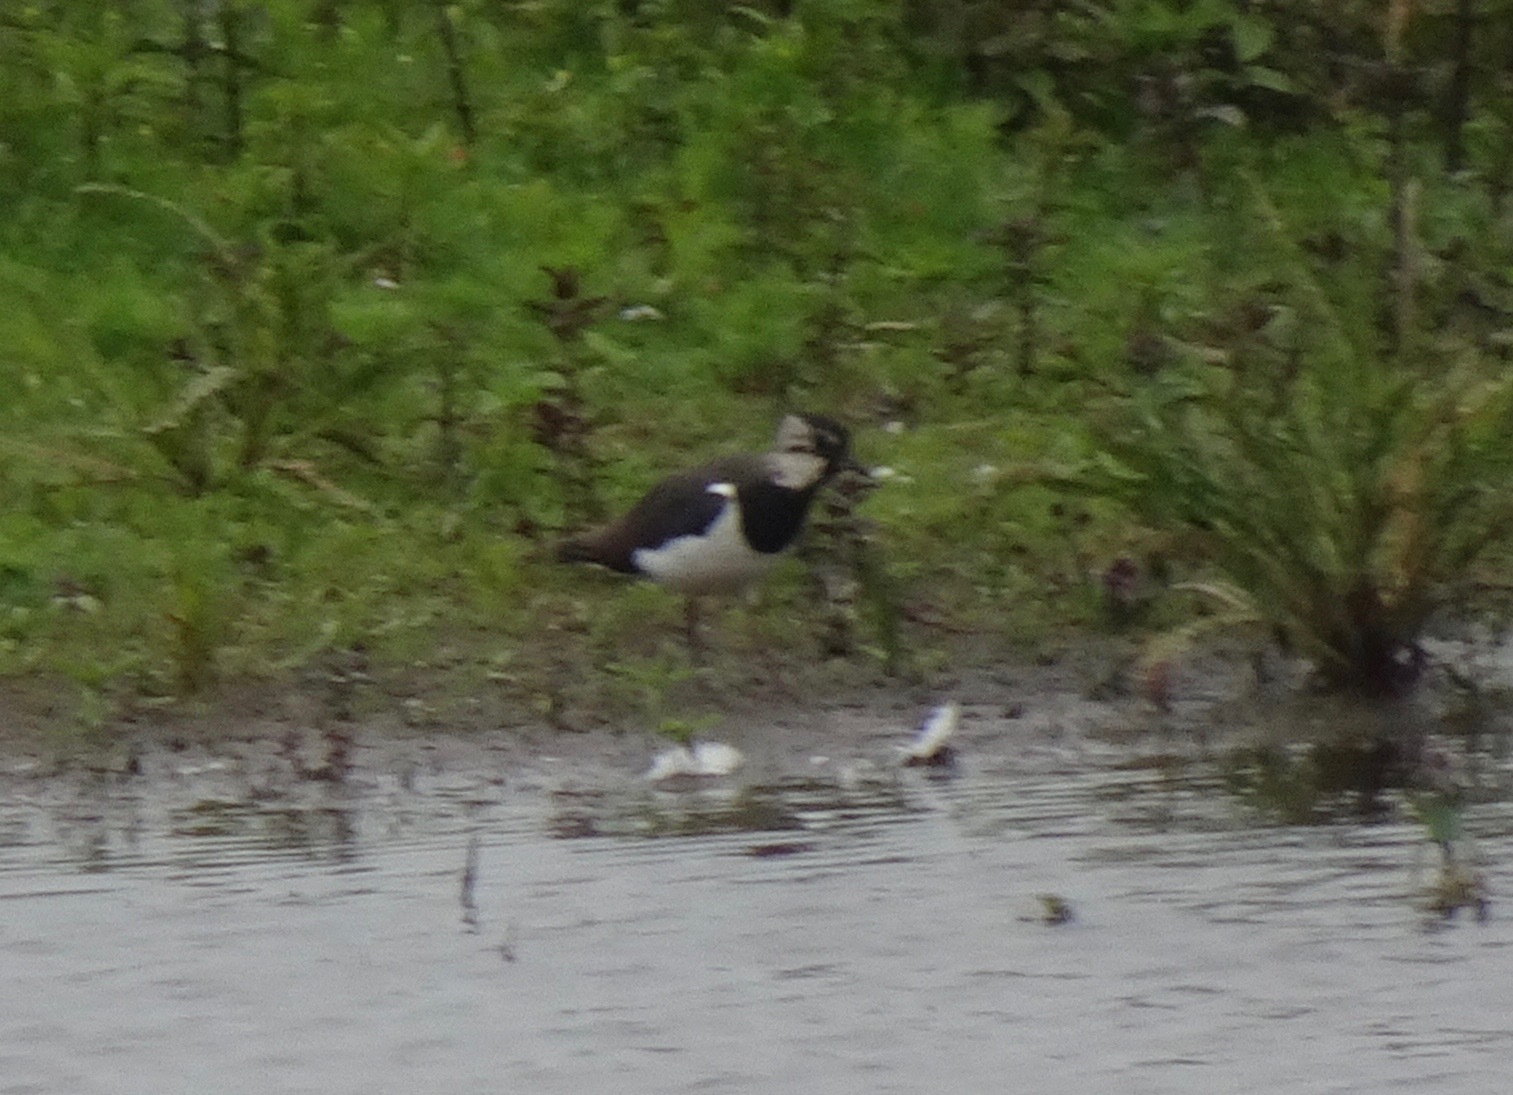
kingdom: Animalia
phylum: Chordata
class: Aves
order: Charadriiformes
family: Charadriidae
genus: Vanellus
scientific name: Vanellus vanellus
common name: Northern lapwing
